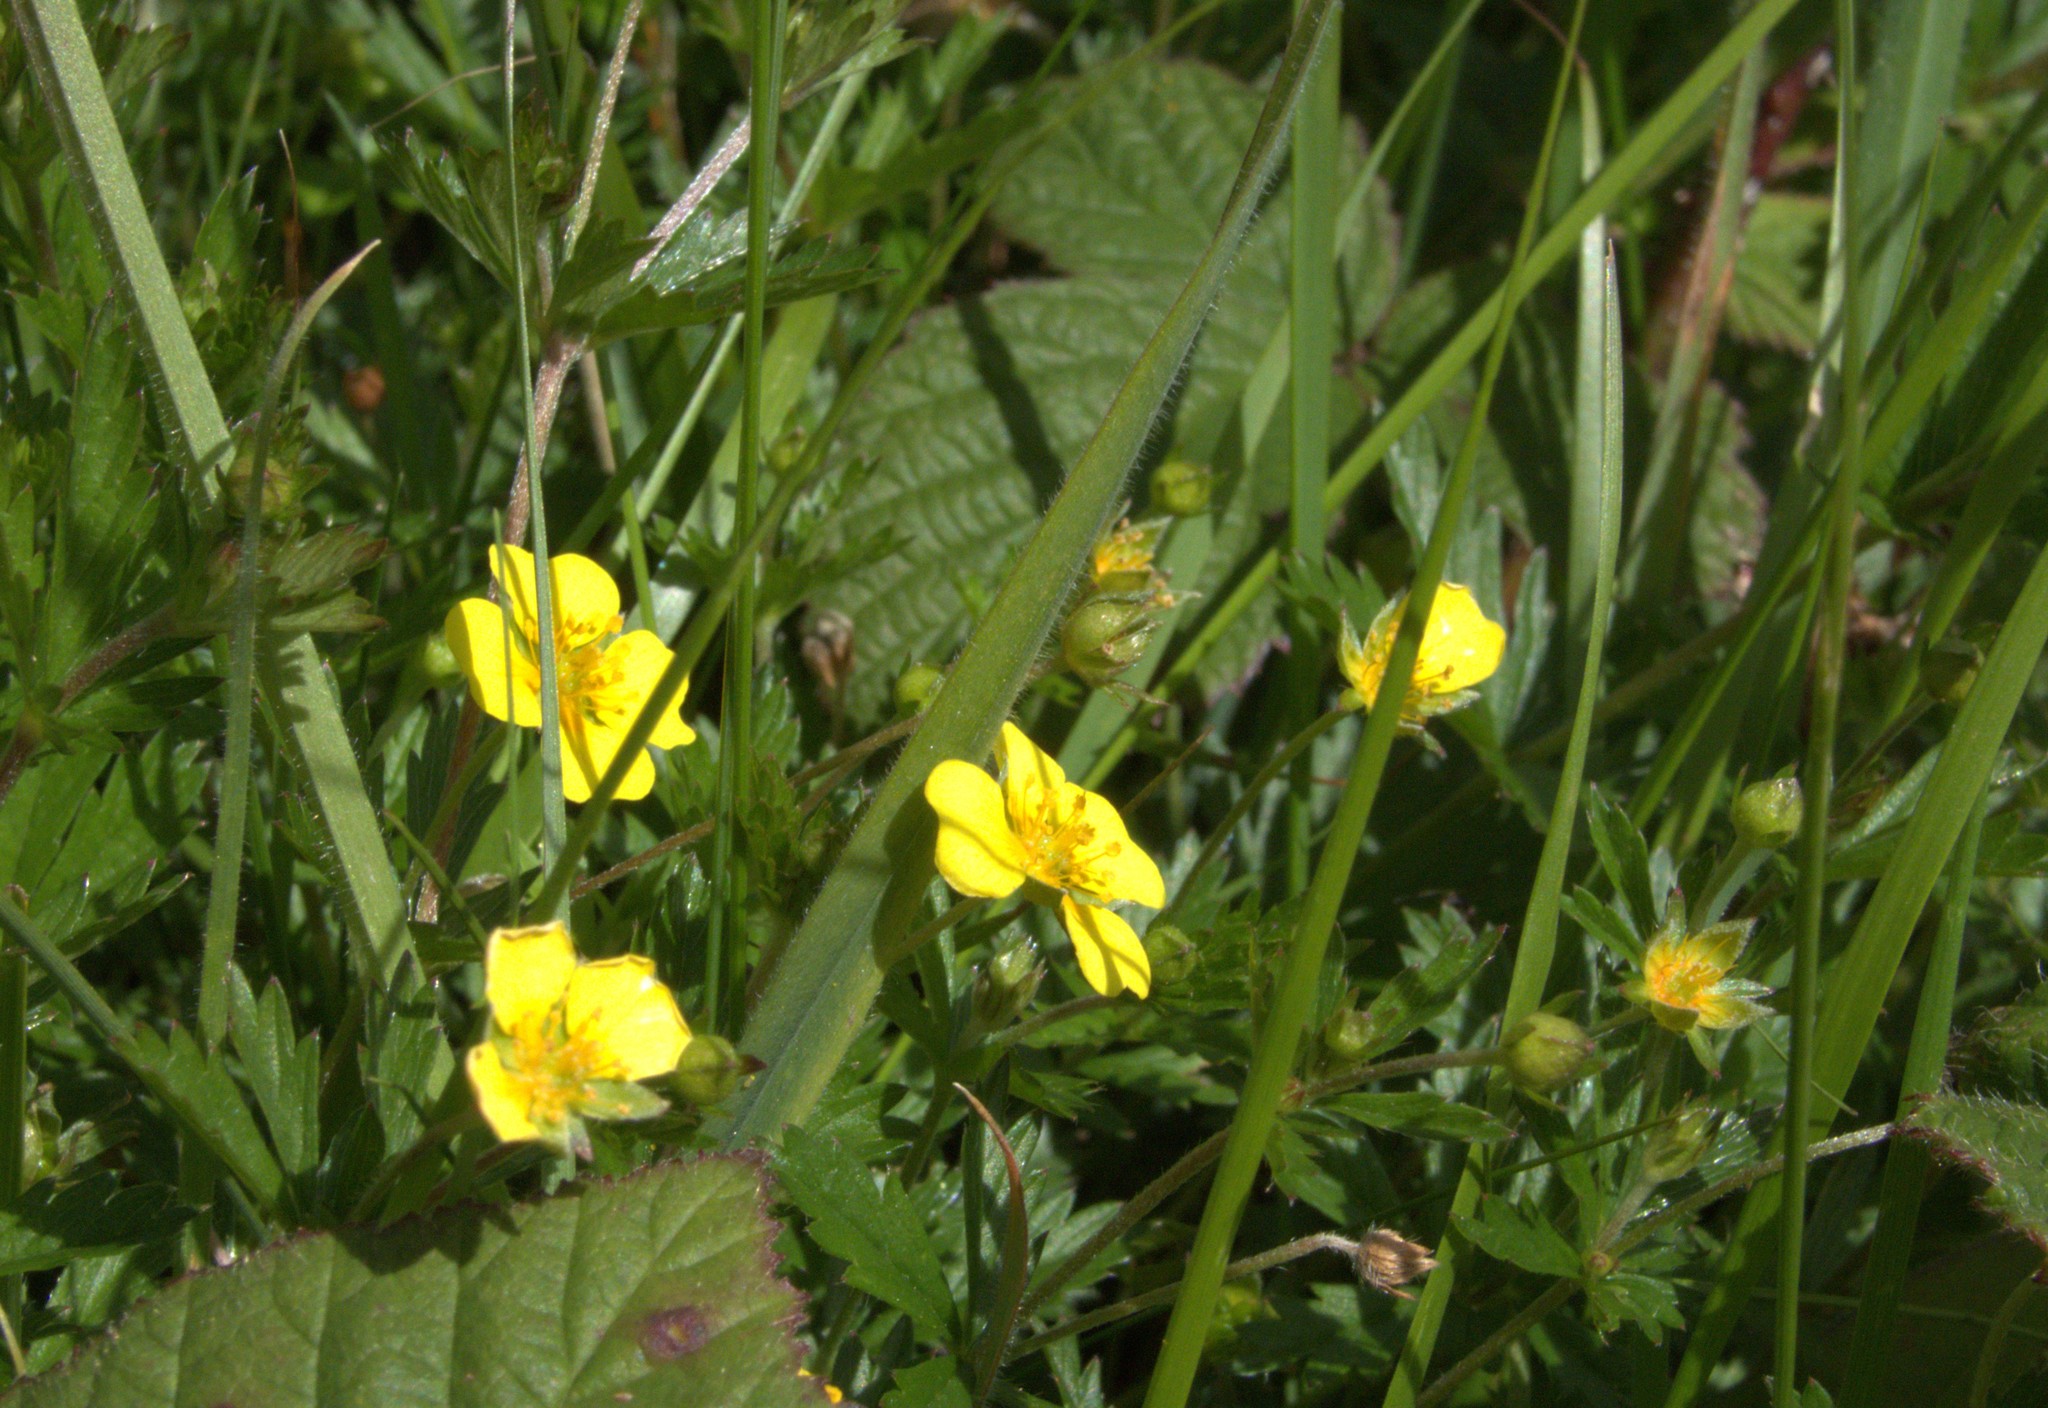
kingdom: Plantae
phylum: Tracheophyta
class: Magnoliopsida
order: Rosales
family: Rosaceae
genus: Potentilla
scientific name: Potentilla verna
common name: Spring cinquefoil
